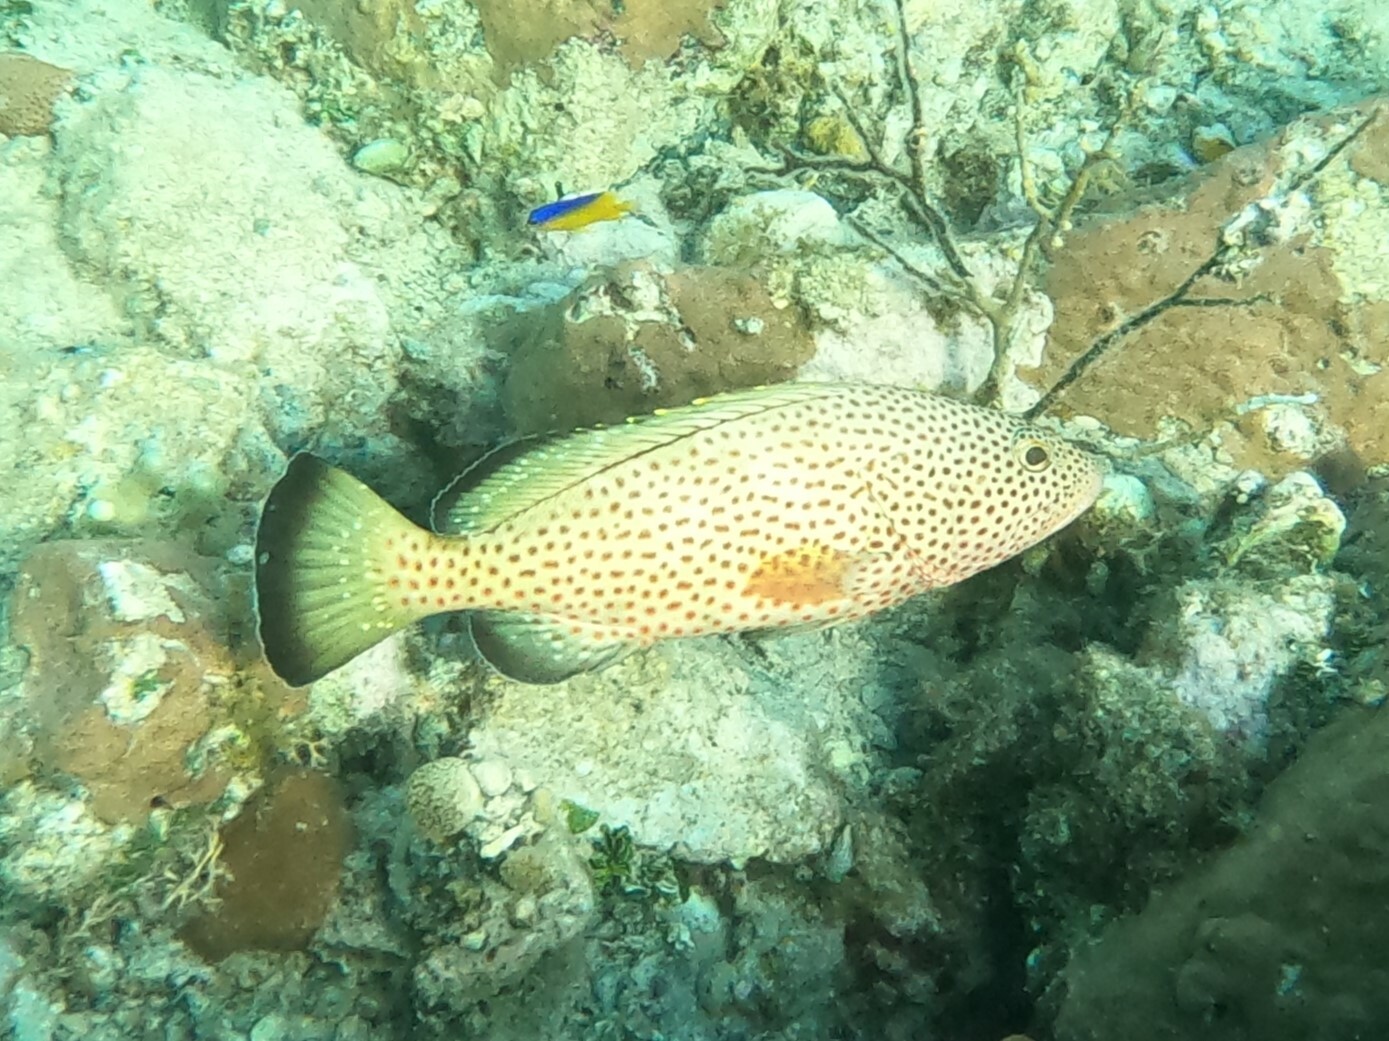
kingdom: Animalia
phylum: Chordata
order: Perciformes
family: Serranidae
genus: Epinephelus
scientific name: Epinephelus guttatus
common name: Red hind
